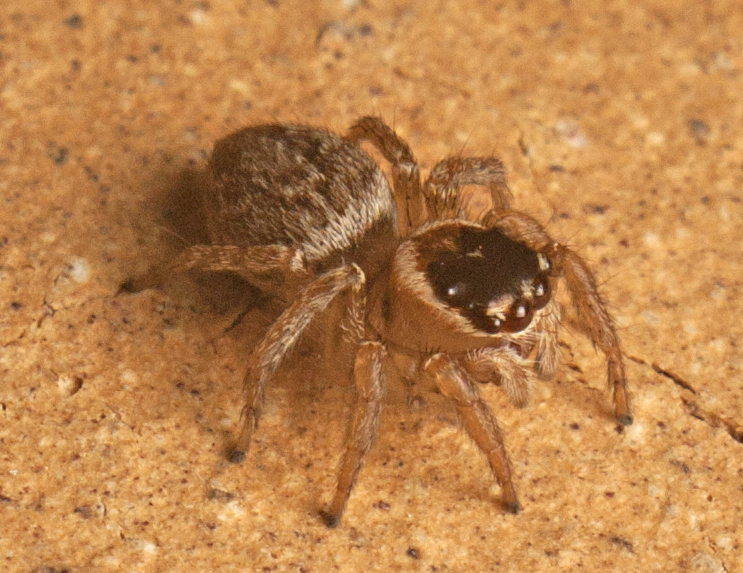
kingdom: Animalia
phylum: Arthropoda
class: Arachnida
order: Araneae
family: Salticidae
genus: Maratus
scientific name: Maratus griseus
